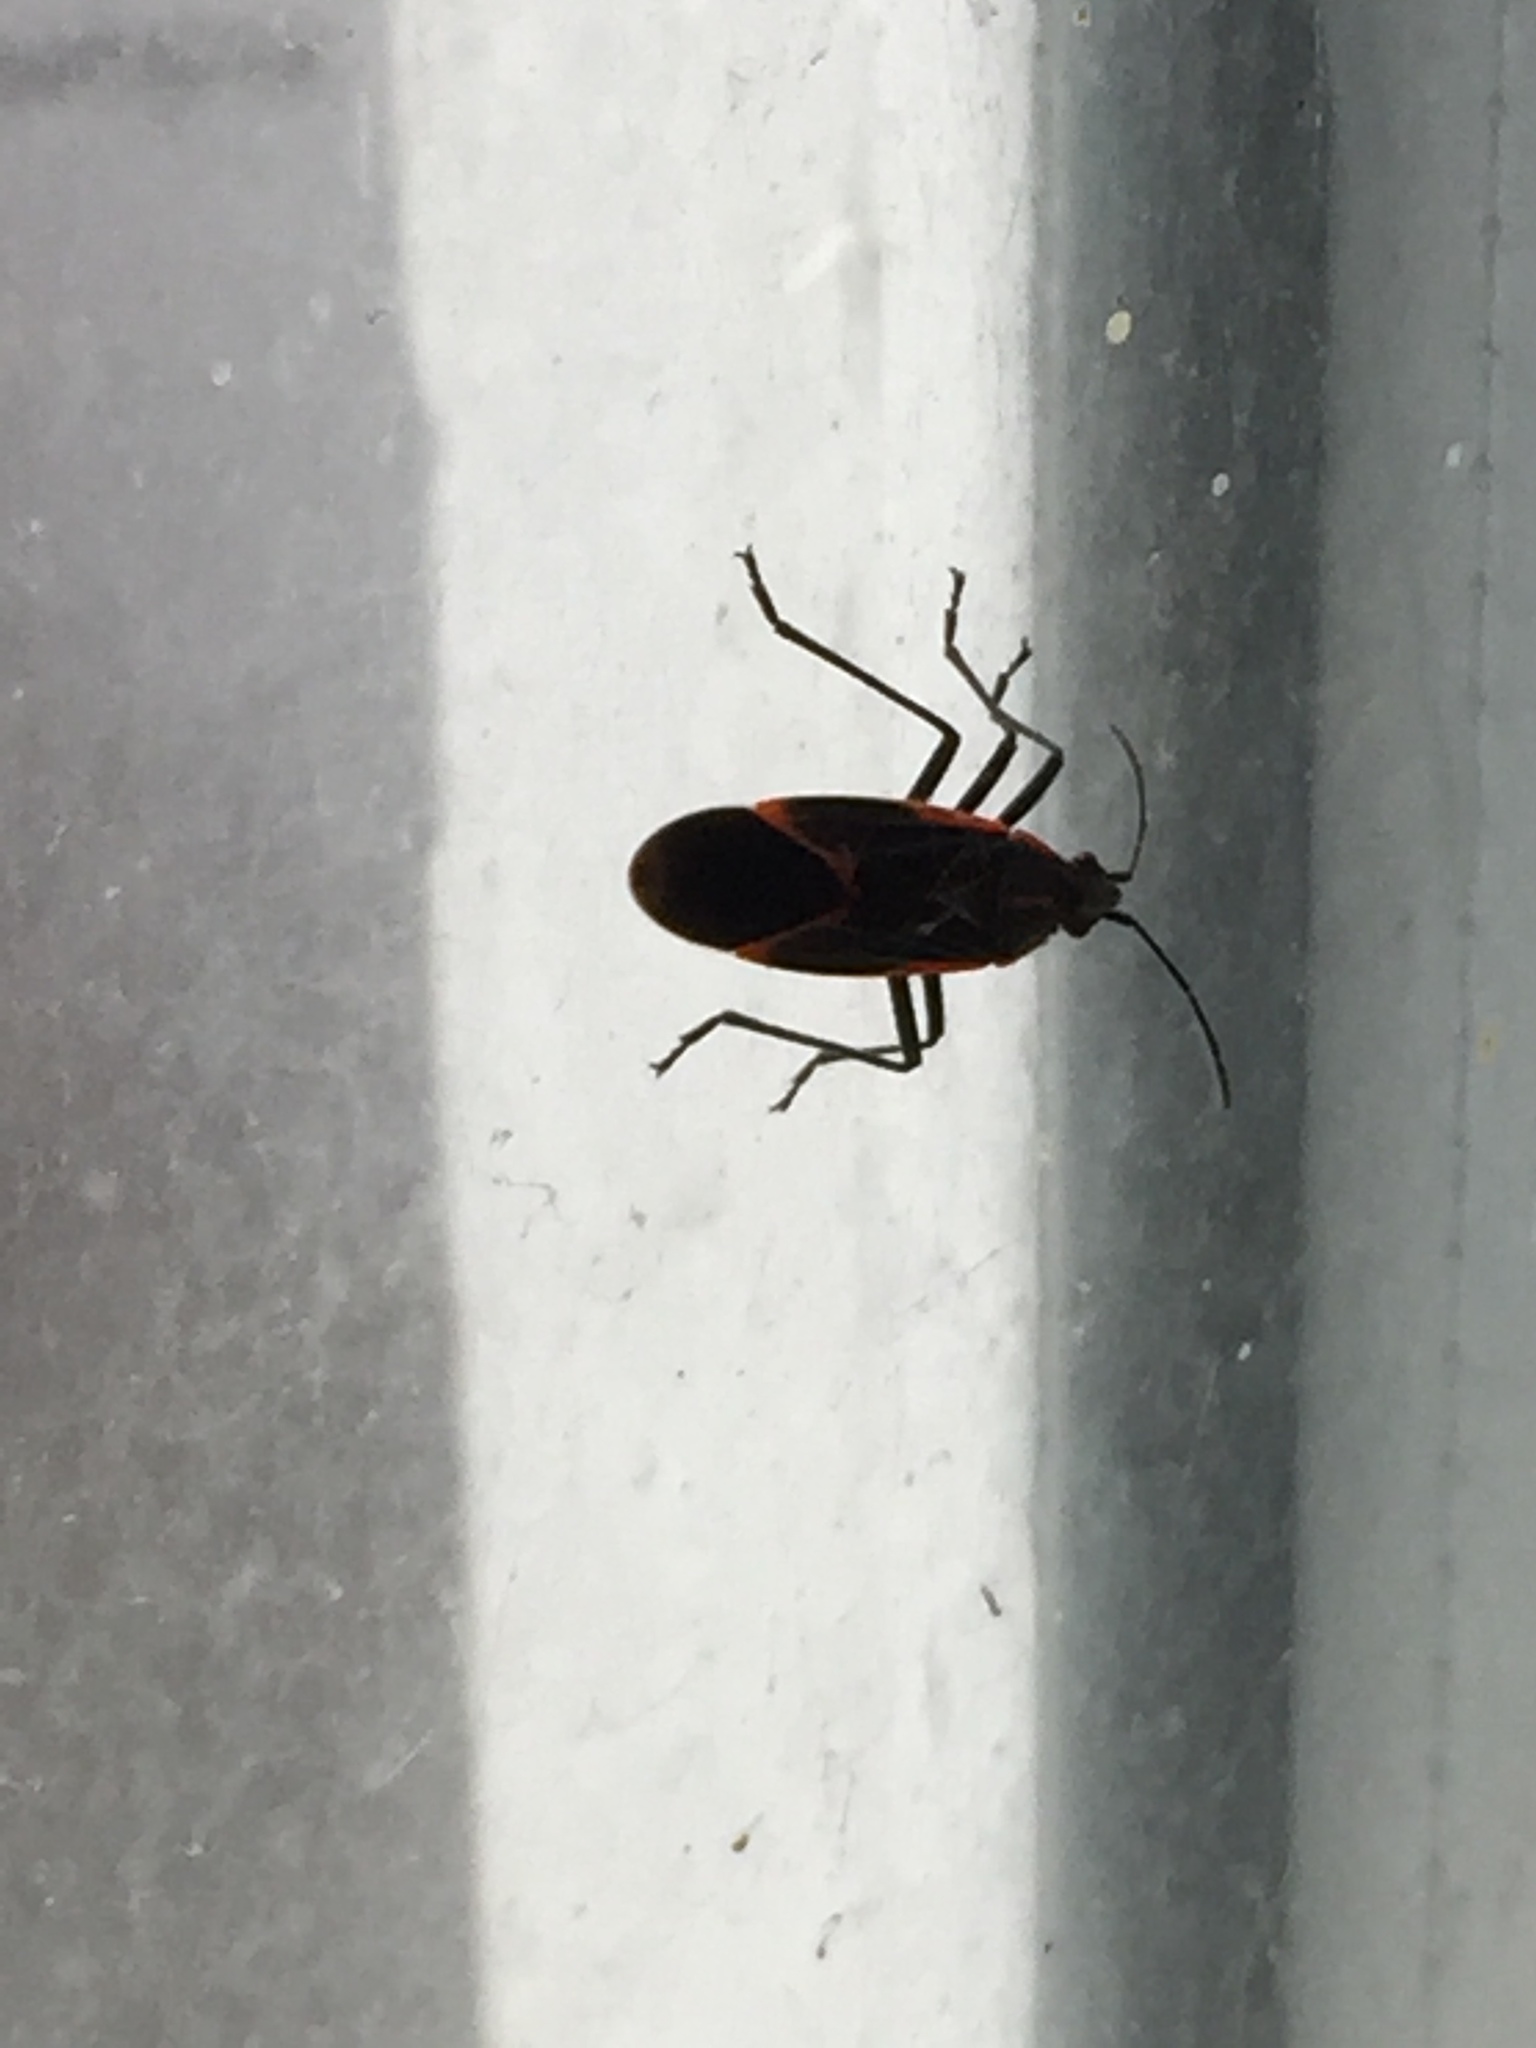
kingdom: Animalia
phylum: Arthropoda
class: Insecta
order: Hemiptera
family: Rhopalidae
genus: Boisea
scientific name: Boisea trivittata
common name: Boxelder bug
